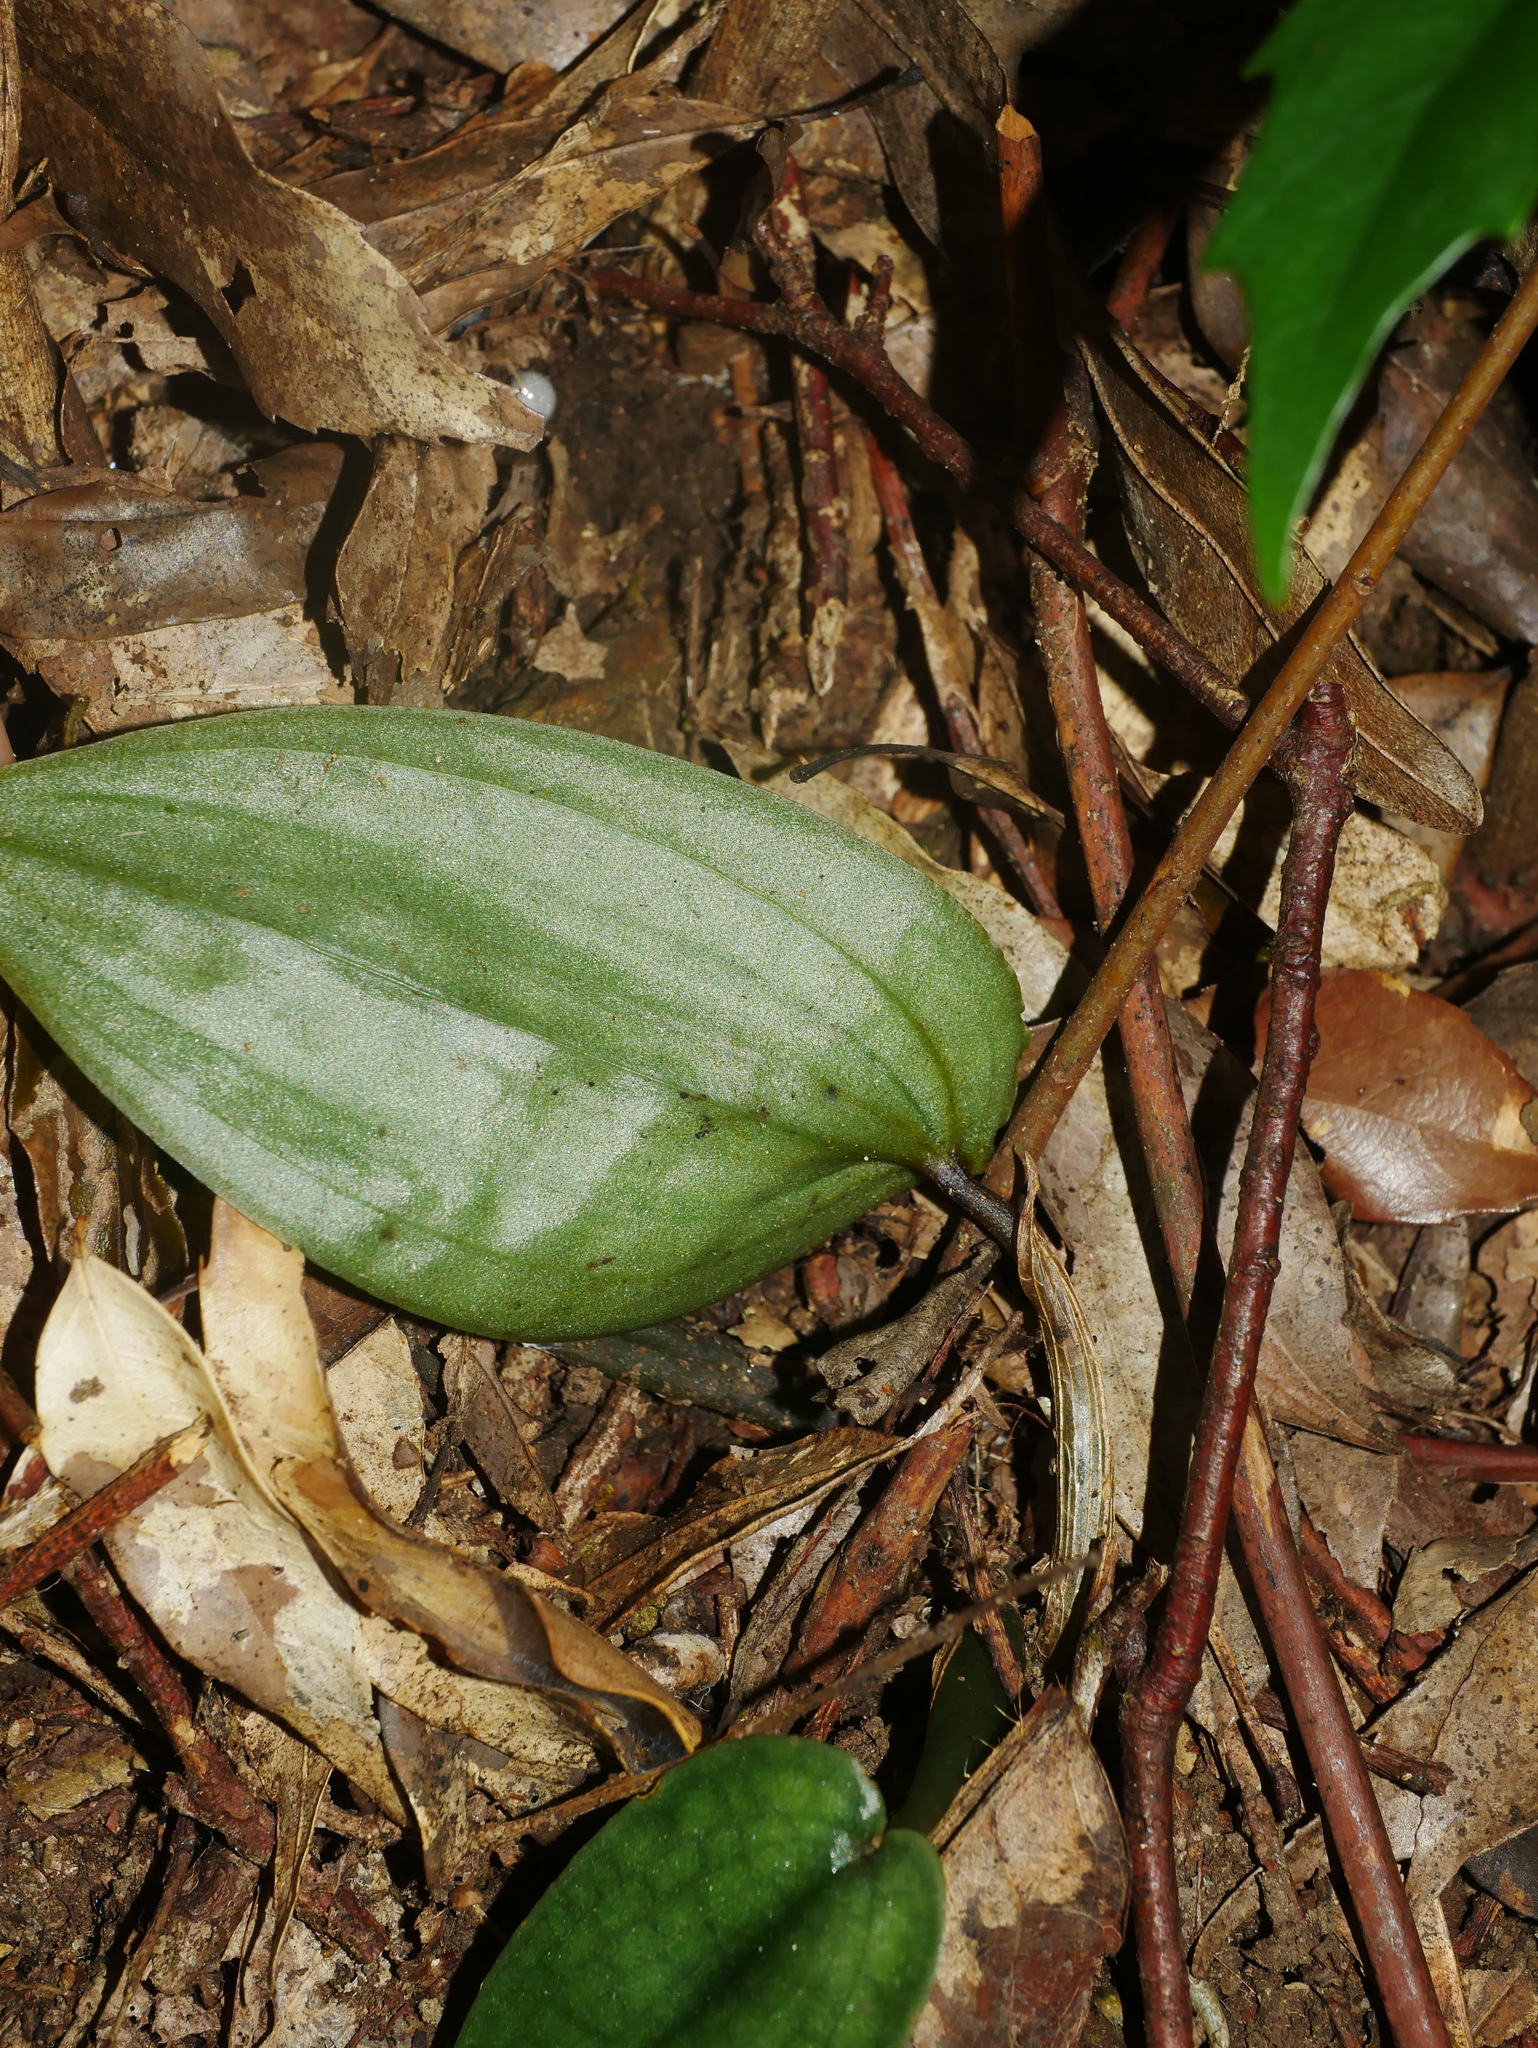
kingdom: Plantae
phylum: Tracheophyta
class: Liliopsida
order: Asparagales
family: Orchidaceae
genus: Tainia
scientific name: Tainia cordifolia
